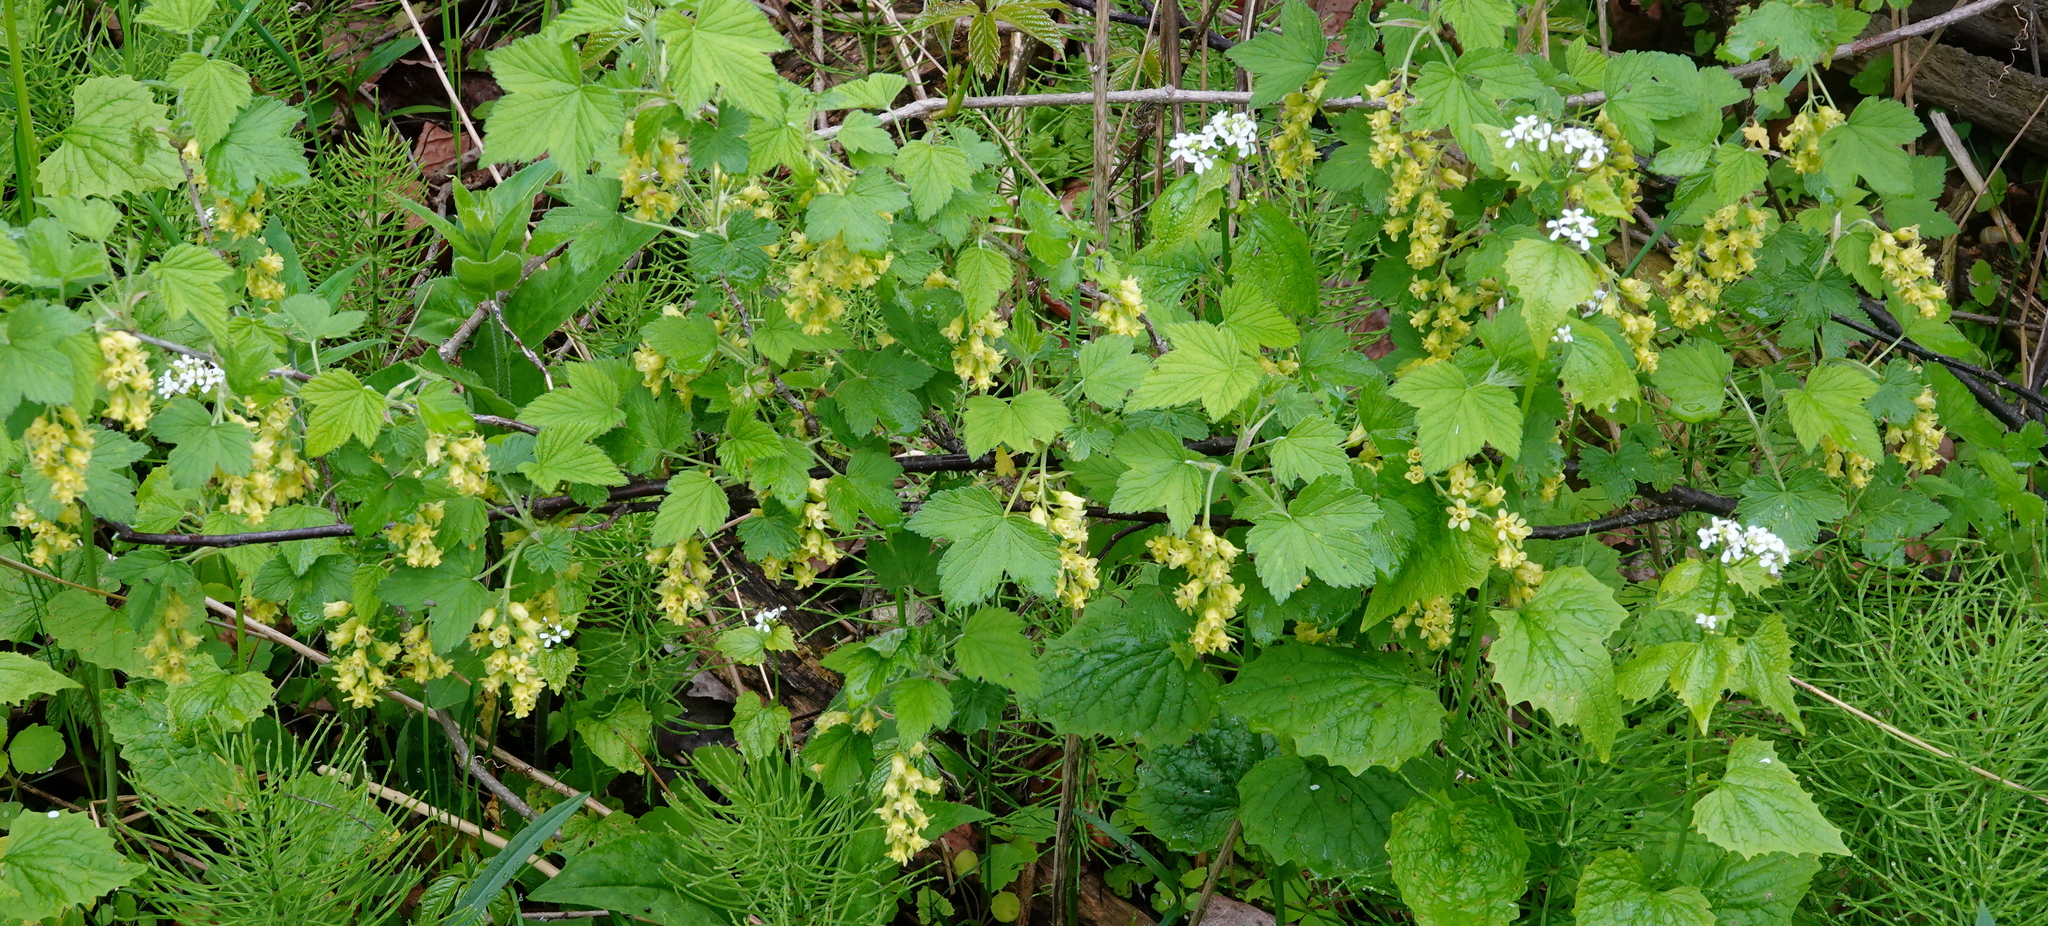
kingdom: Plantae
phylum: Tracheophyta
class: Magnoliopsida
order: Saxifragales
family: Grossulariaceae
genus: Ribes
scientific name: Ribes americanum
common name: American black currant
